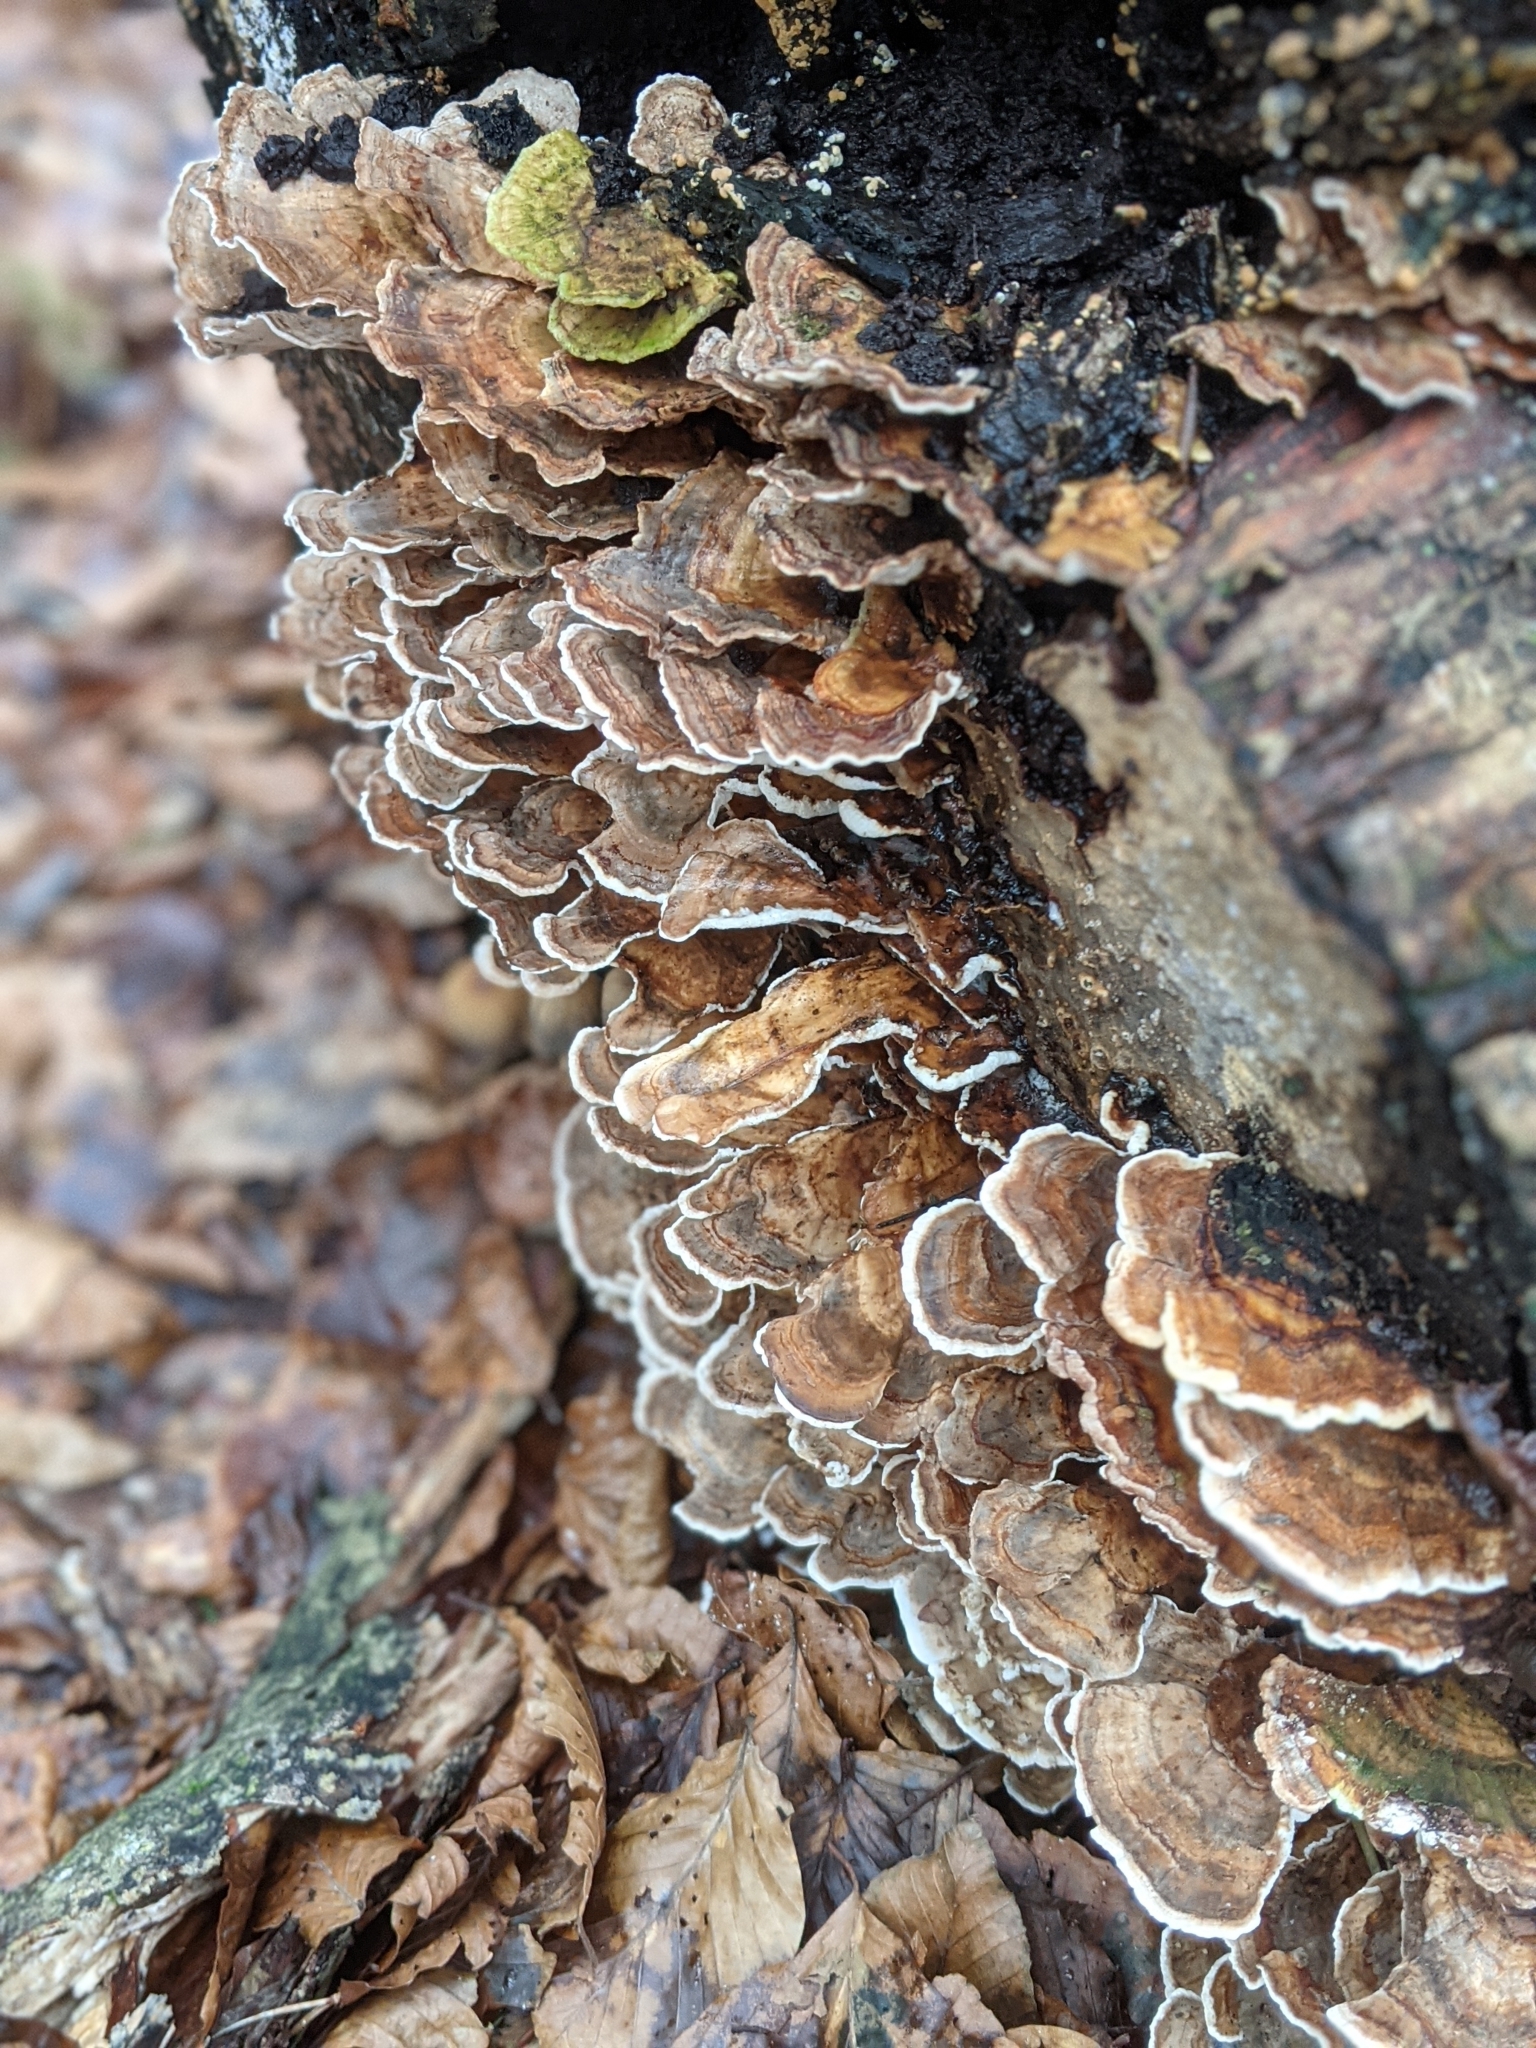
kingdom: Fungi
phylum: Basidiomycota
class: Agaricomycetes
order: Polyporales
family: Polyporaceae
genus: Trametes
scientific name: Trametes versicolor
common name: Turkeytail
